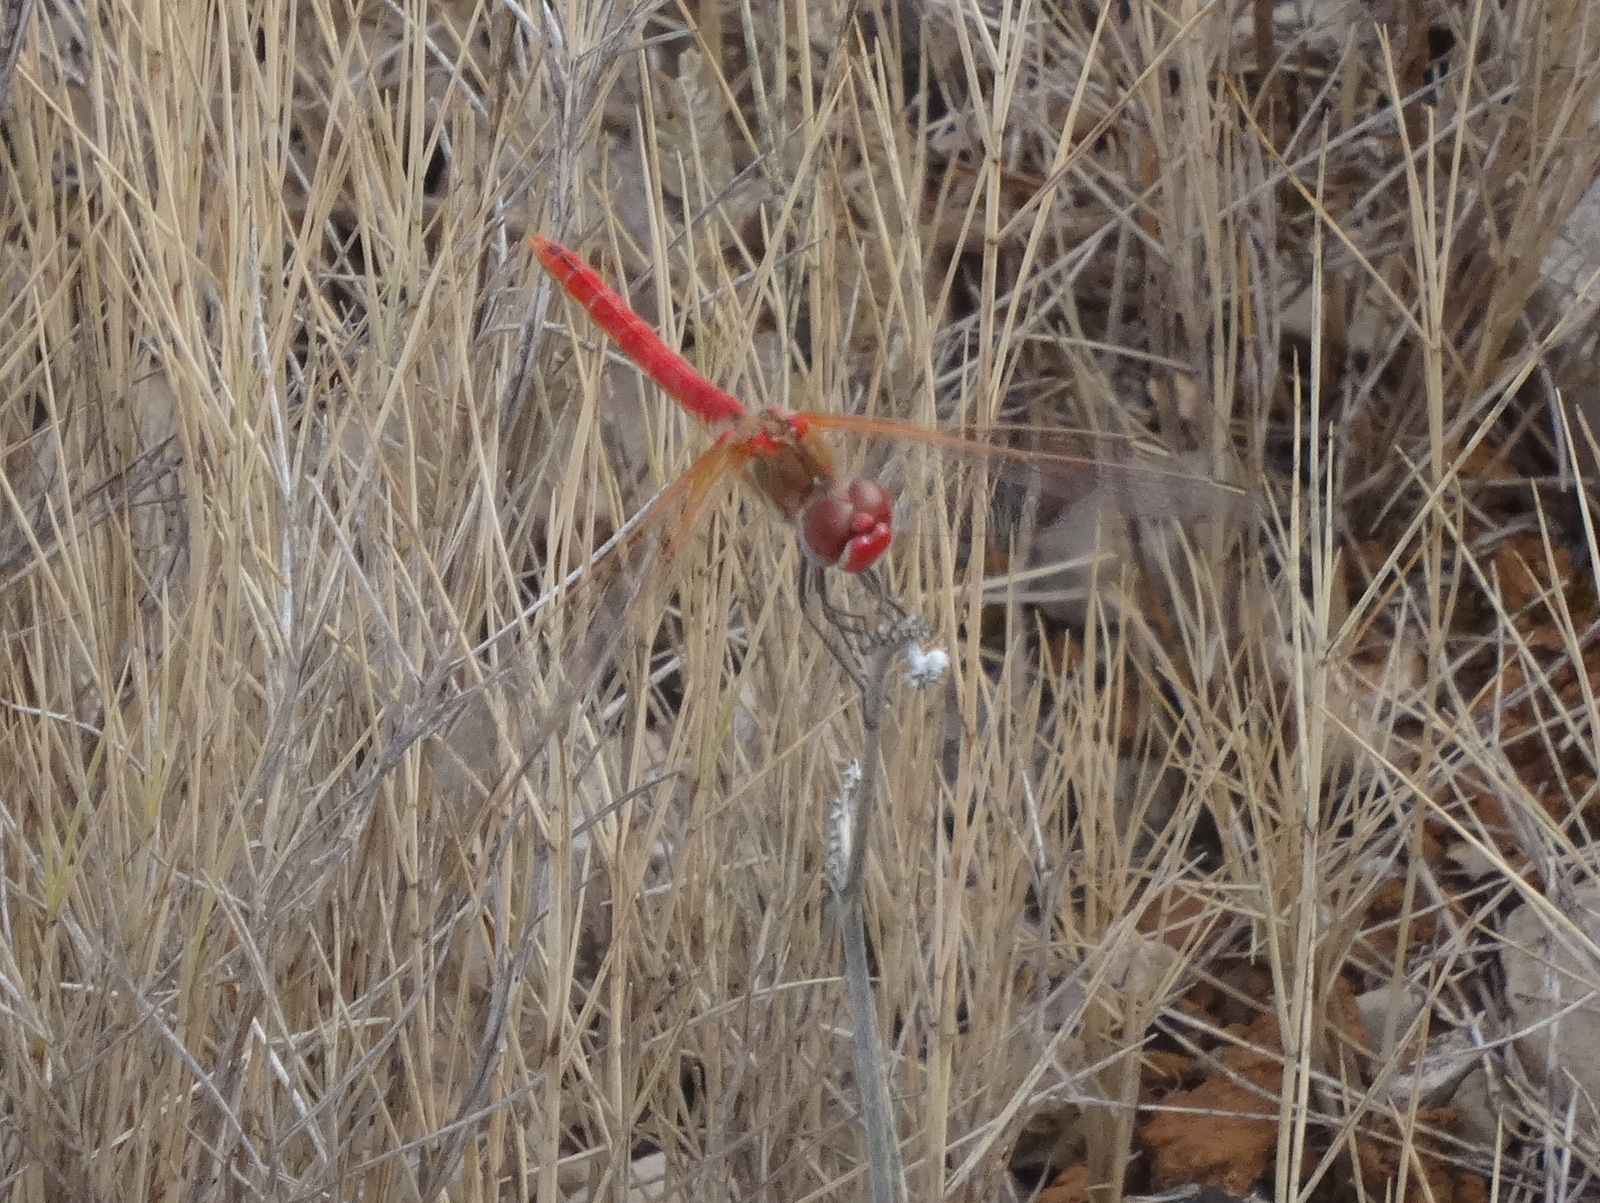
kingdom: Animalia
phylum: Arthropoda
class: Insecta
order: Odonata
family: Libellulidae
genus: Sympetrum
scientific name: Sympetrum fonscolombii
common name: Red-veined darter
